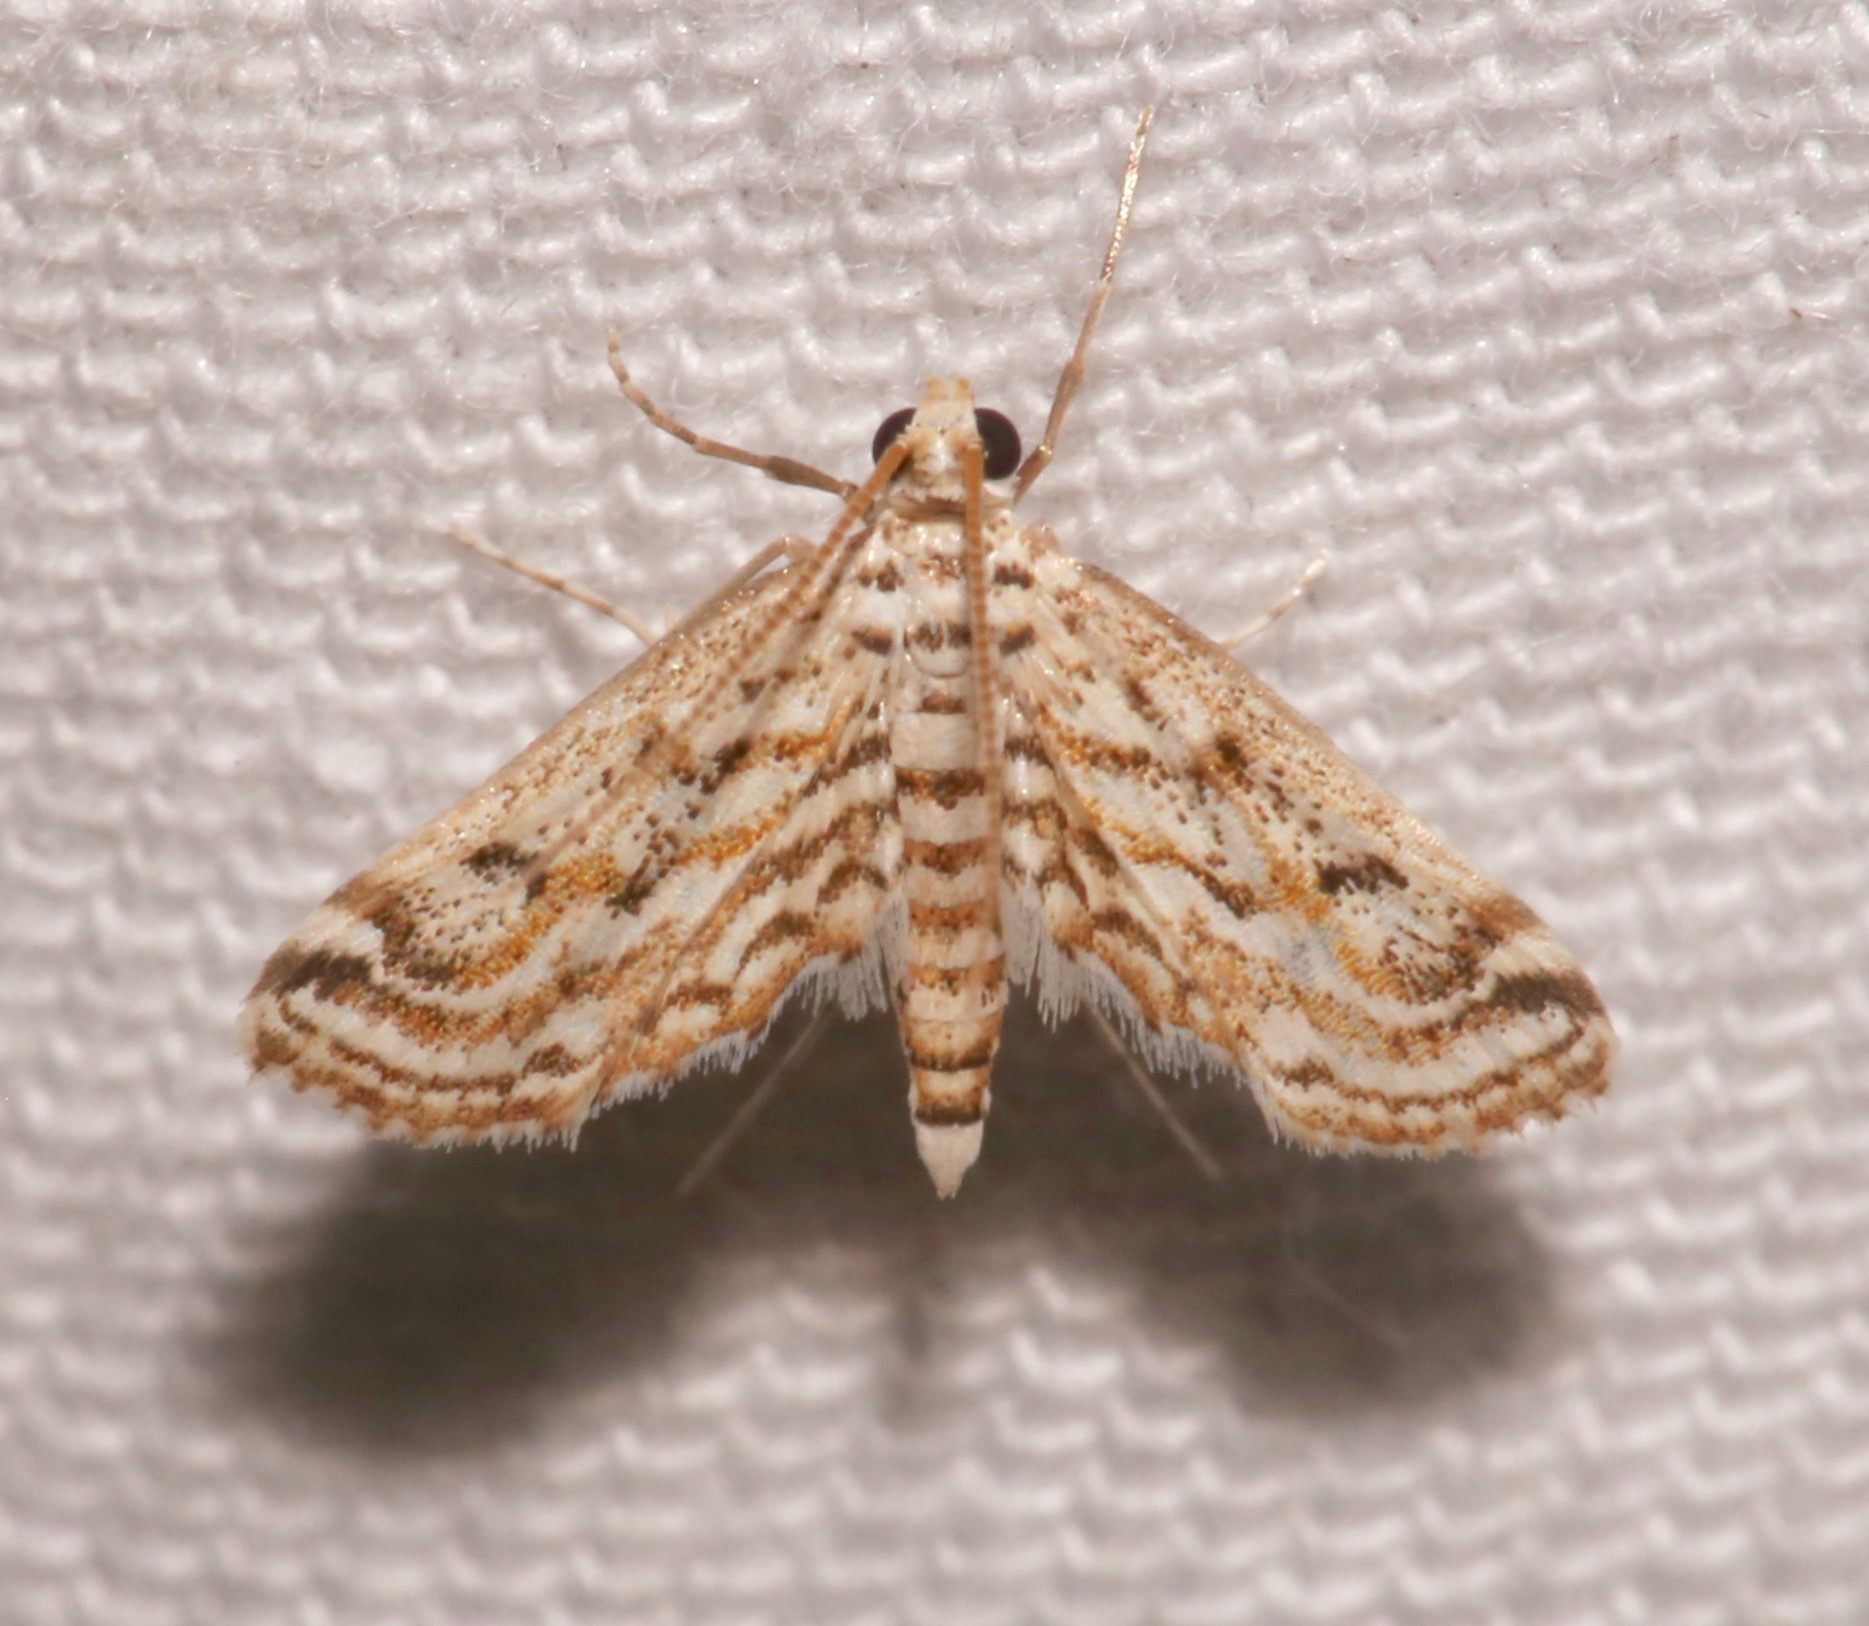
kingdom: Animalia
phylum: Arthropoda
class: Insecta
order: Lepidoptera
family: Crambidae
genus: Parapoynx
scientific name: Parapoynx allionealis
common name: Bladderwort casemaker
